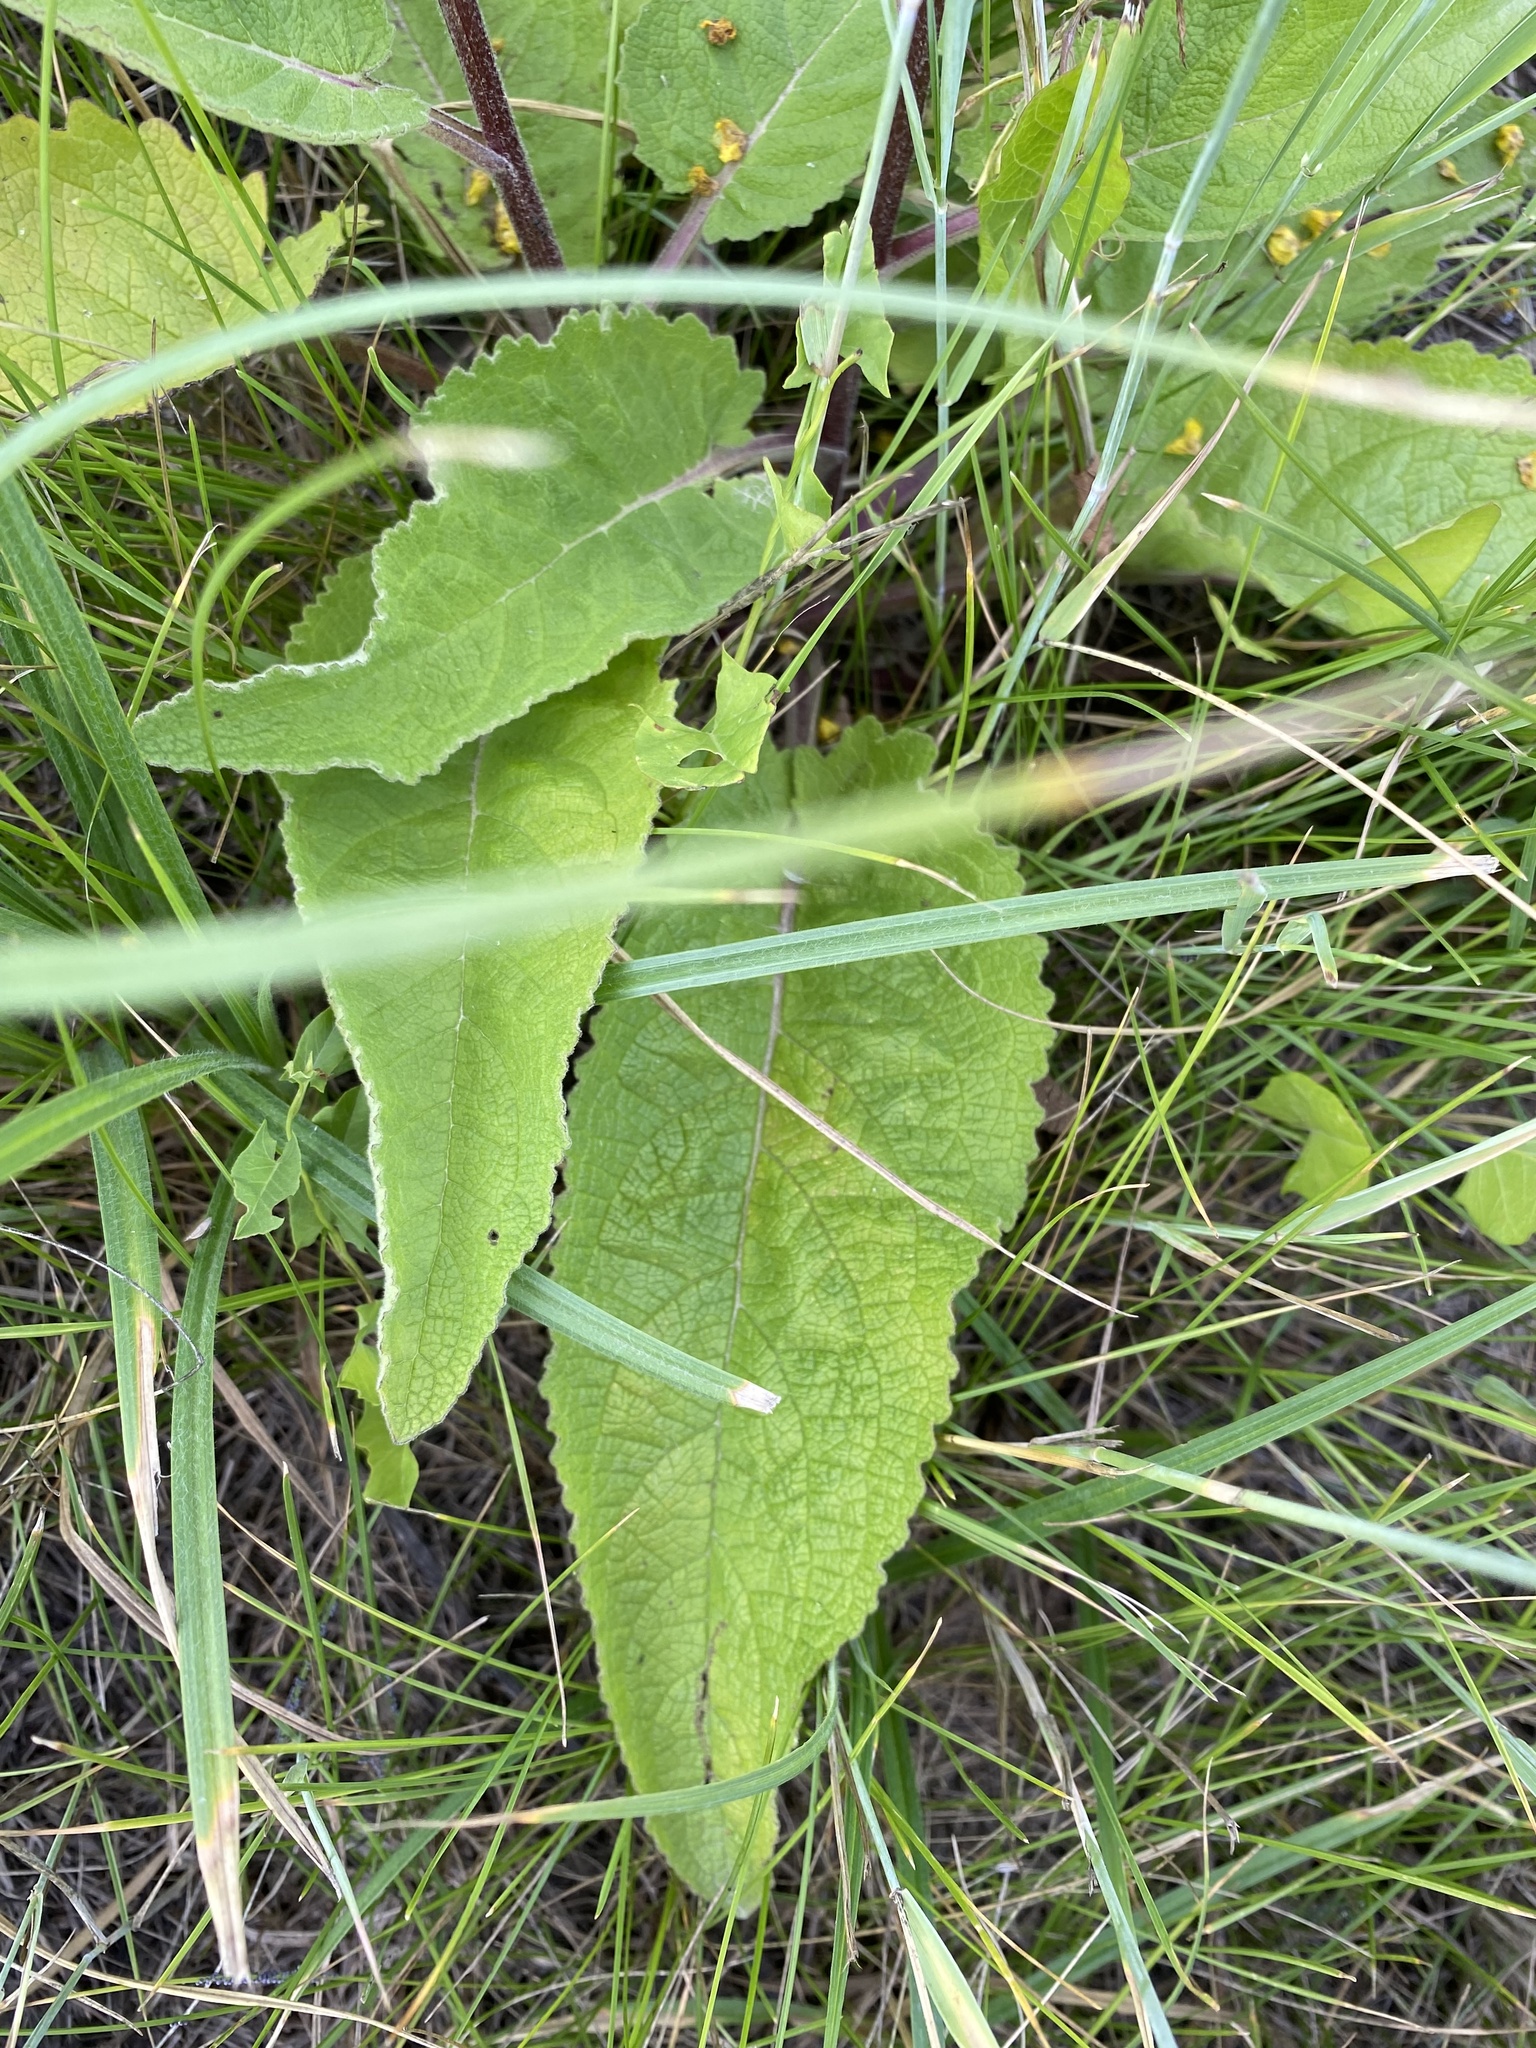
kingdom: Plantae
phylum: Tracheophyta
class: Magnoliopsida
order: Lamiales
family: Scrophulariaceae
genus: Verbascum
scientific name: Verbascum nigrum
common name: Dark mullein
